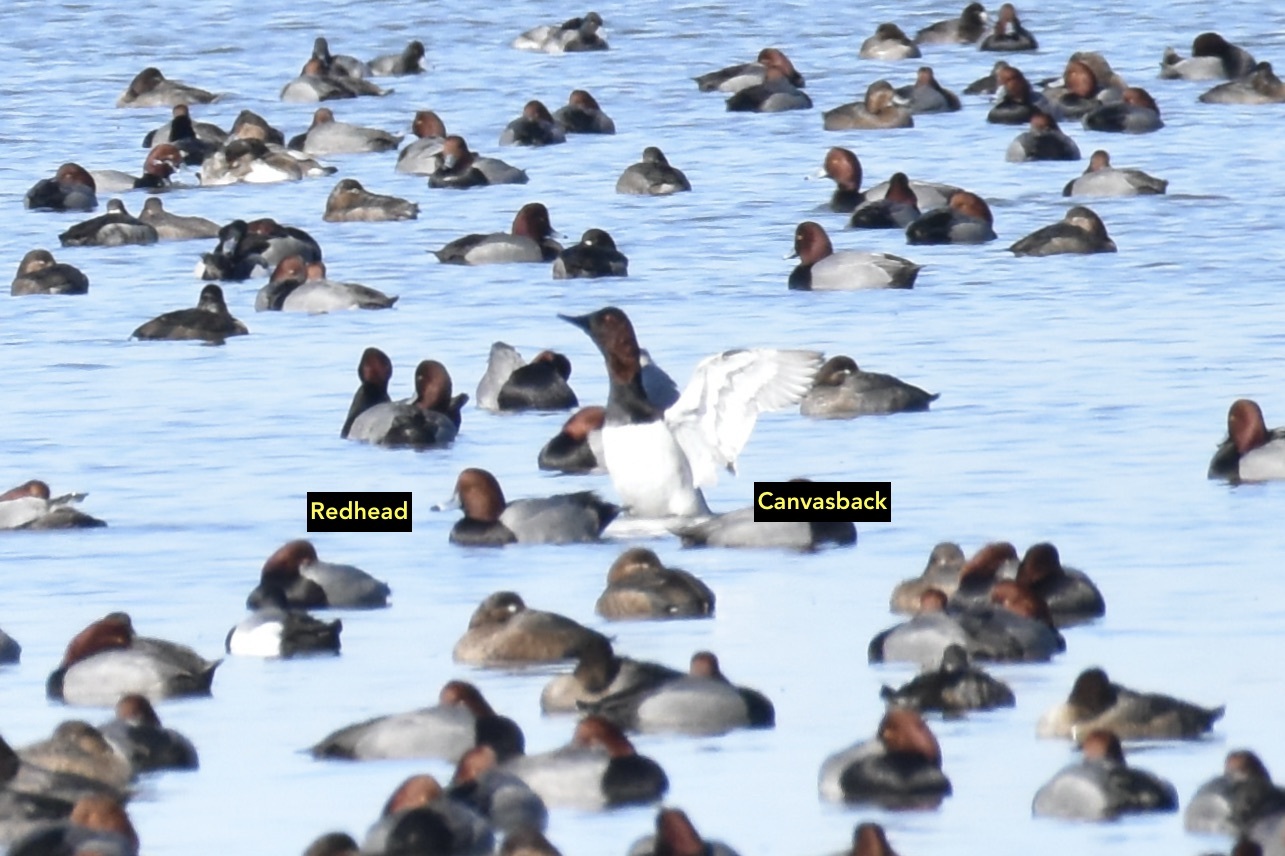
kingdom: Animalia
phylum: Chordata
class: Aves
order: Anseriformes
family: Anatidae
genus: Aythya
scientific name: Aythya americana
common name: Redhead
